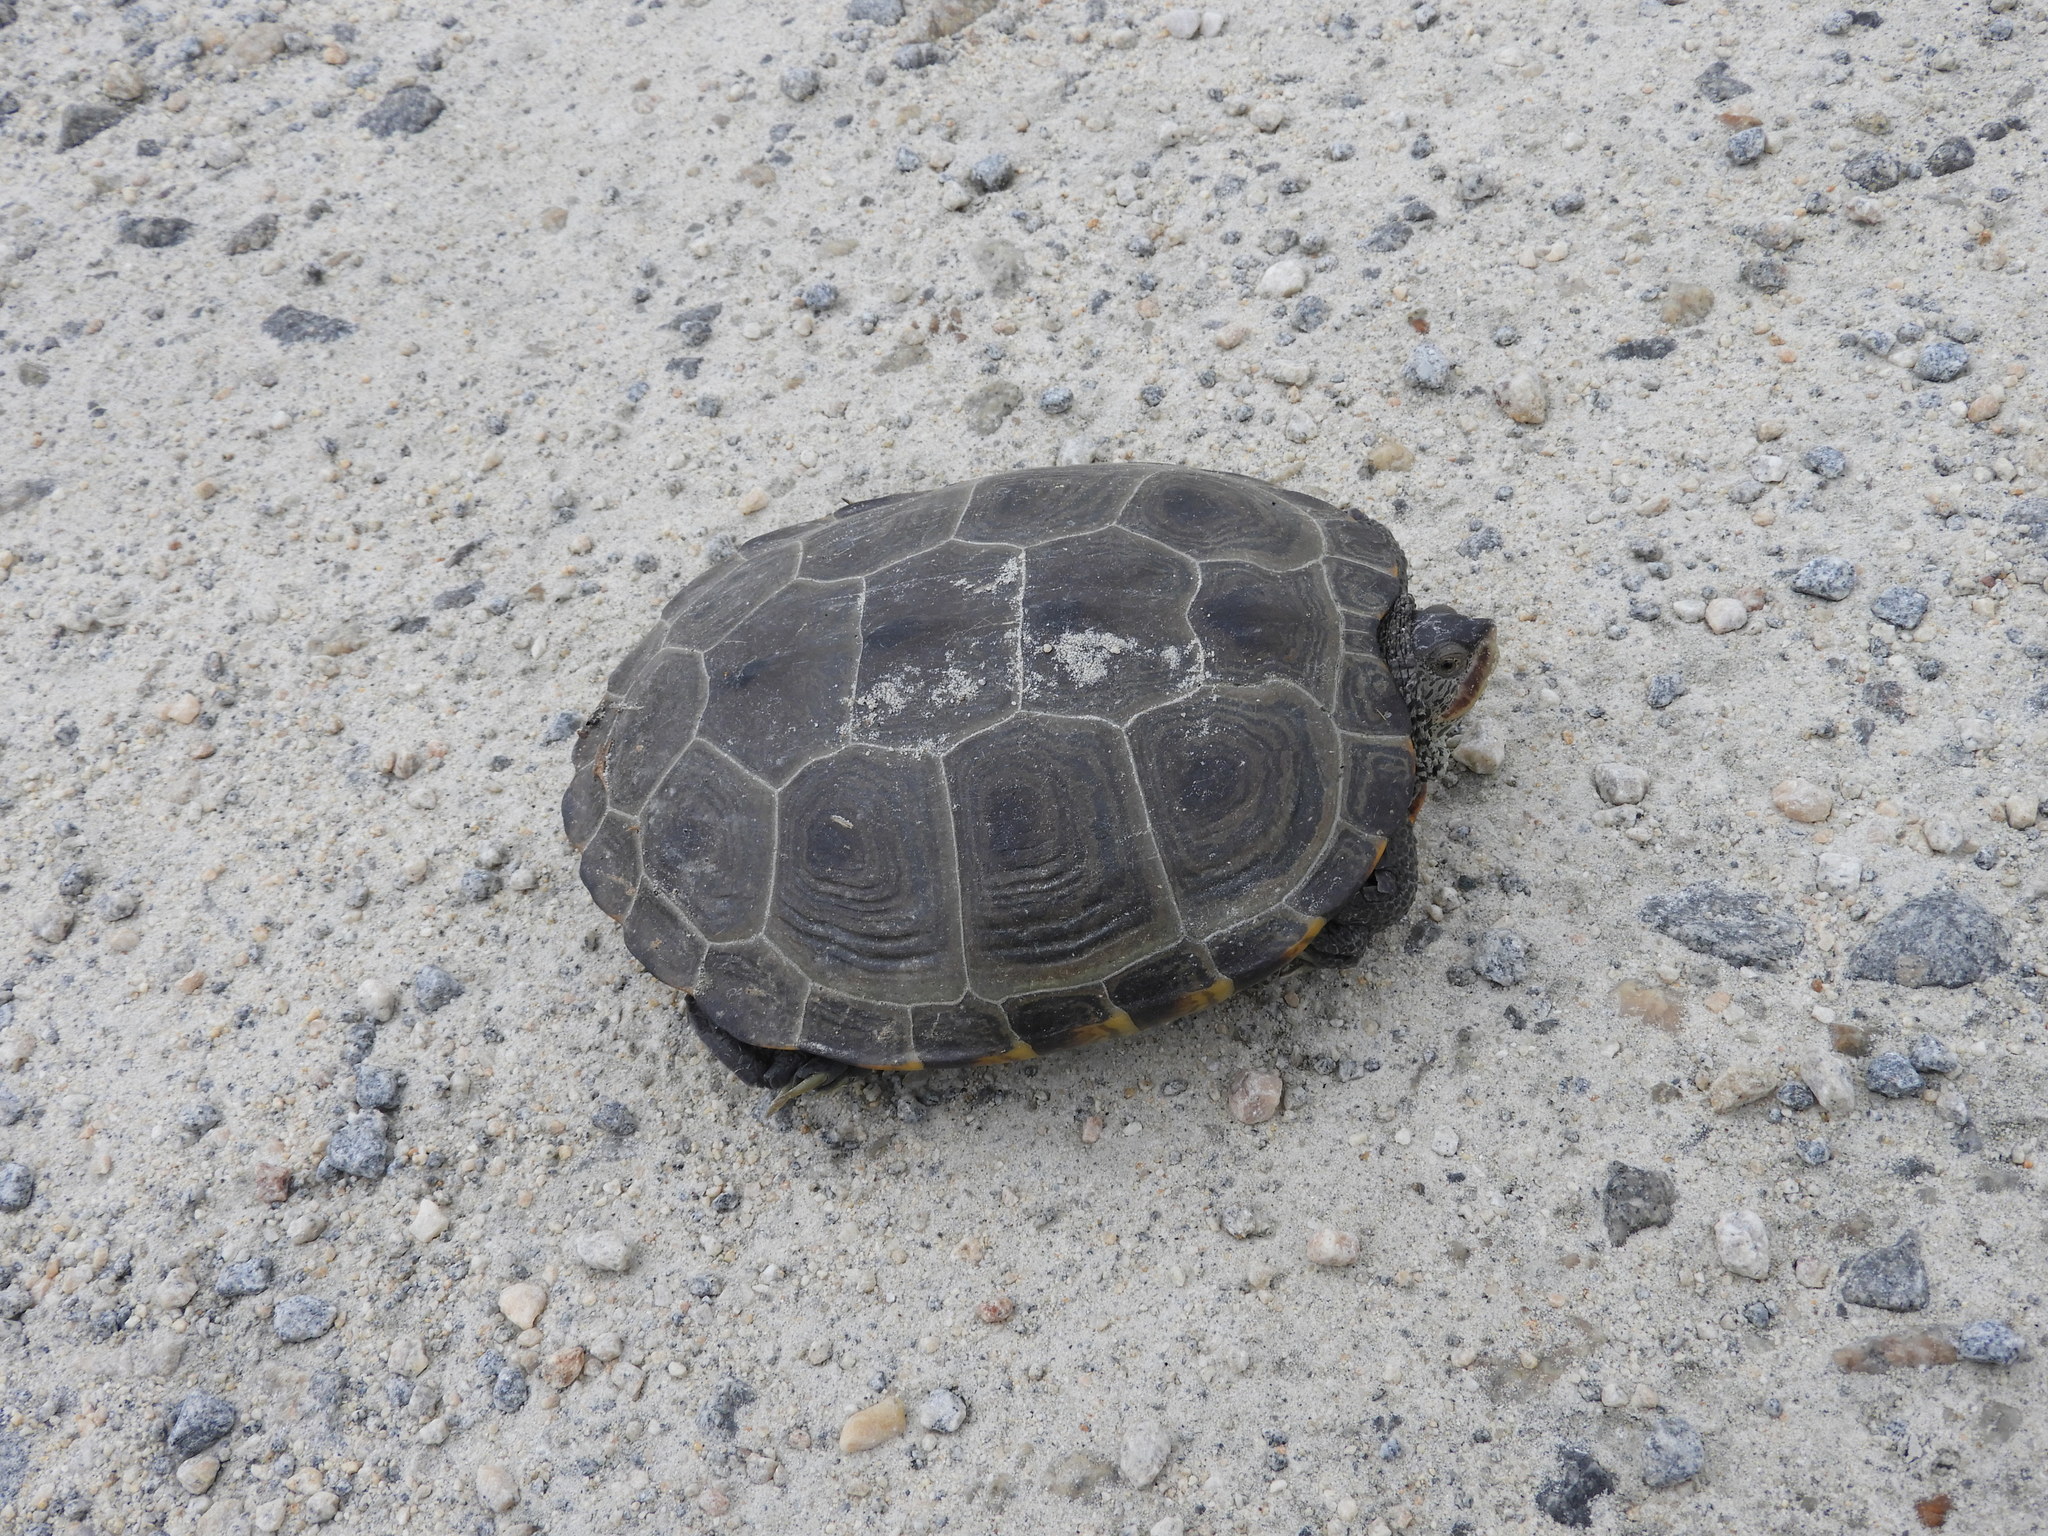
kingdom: Animalia
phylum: Chordata
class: Testudines
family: Emydidae
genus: Malaclemys
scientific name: Malaclemys terrapin
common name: Diamondback terrapin
